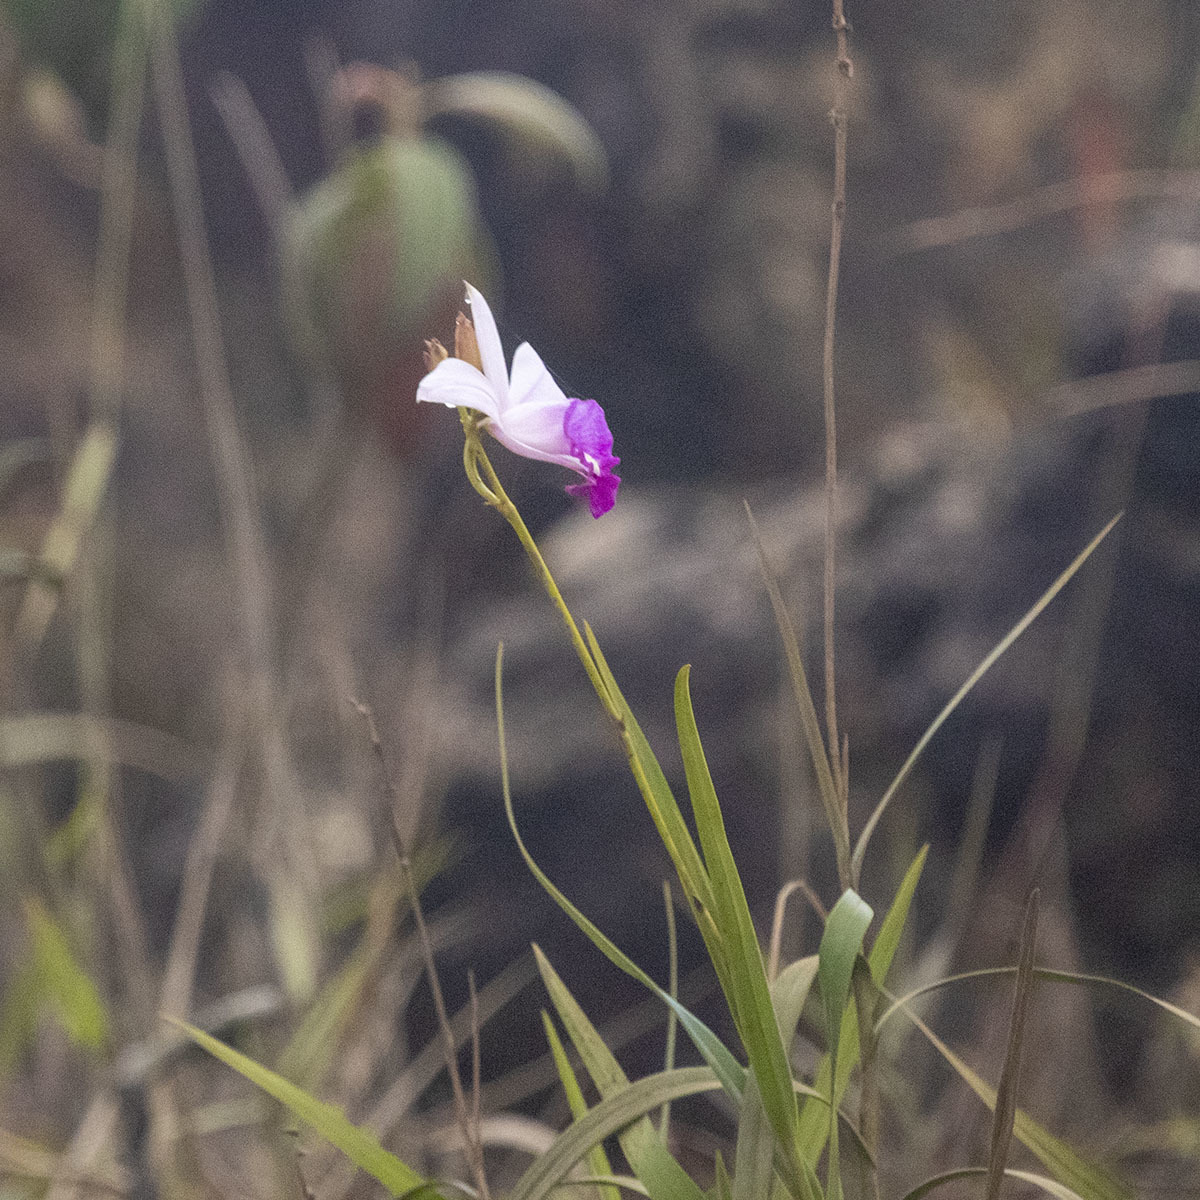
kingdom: Plantae
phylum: Tracheophyta
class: Liliopsida
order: Asparagales
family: Orchidaceae
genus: Arundina
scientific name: Arundina graminifolia
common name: Bamboo orchid
